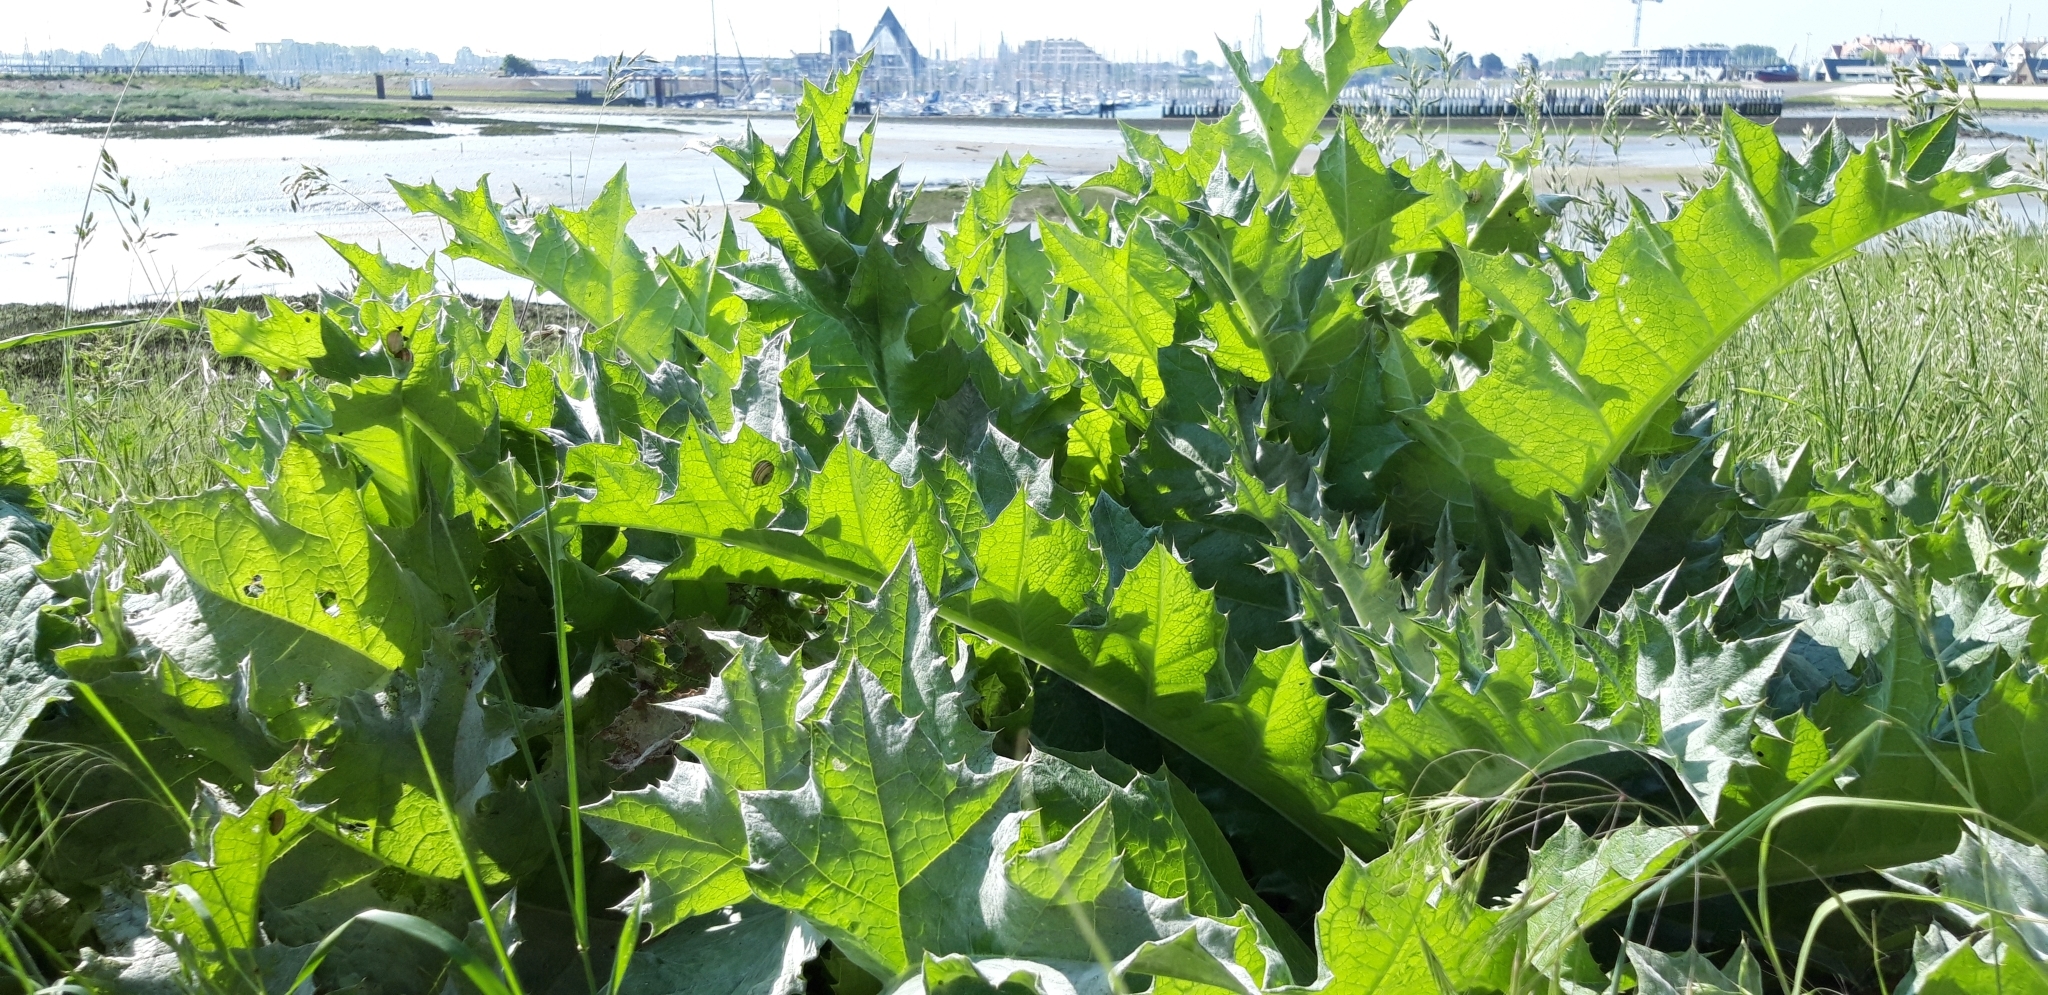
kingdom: Plantae
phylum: Tracheophyta
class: Magnoliopsida
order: Asterales
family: Asteraceae
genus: Onopordum
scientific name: Onopordum acanthium
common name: Scotch thistle
